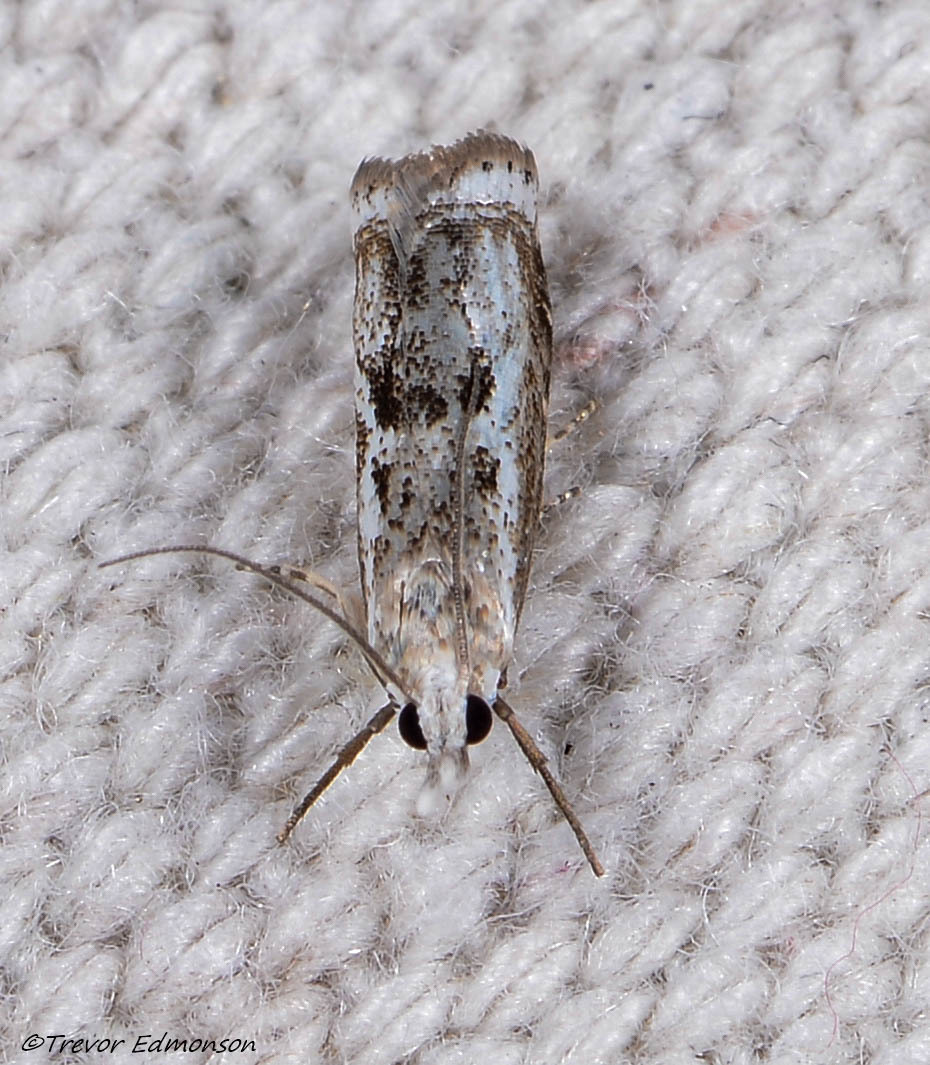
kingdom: Animalia
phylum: Arthropoda
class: Insecta
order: Lepidoptera
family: Crambidae
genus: Microcrambus
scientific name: Microcrambus elegans
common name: Elegant grass-veneer
